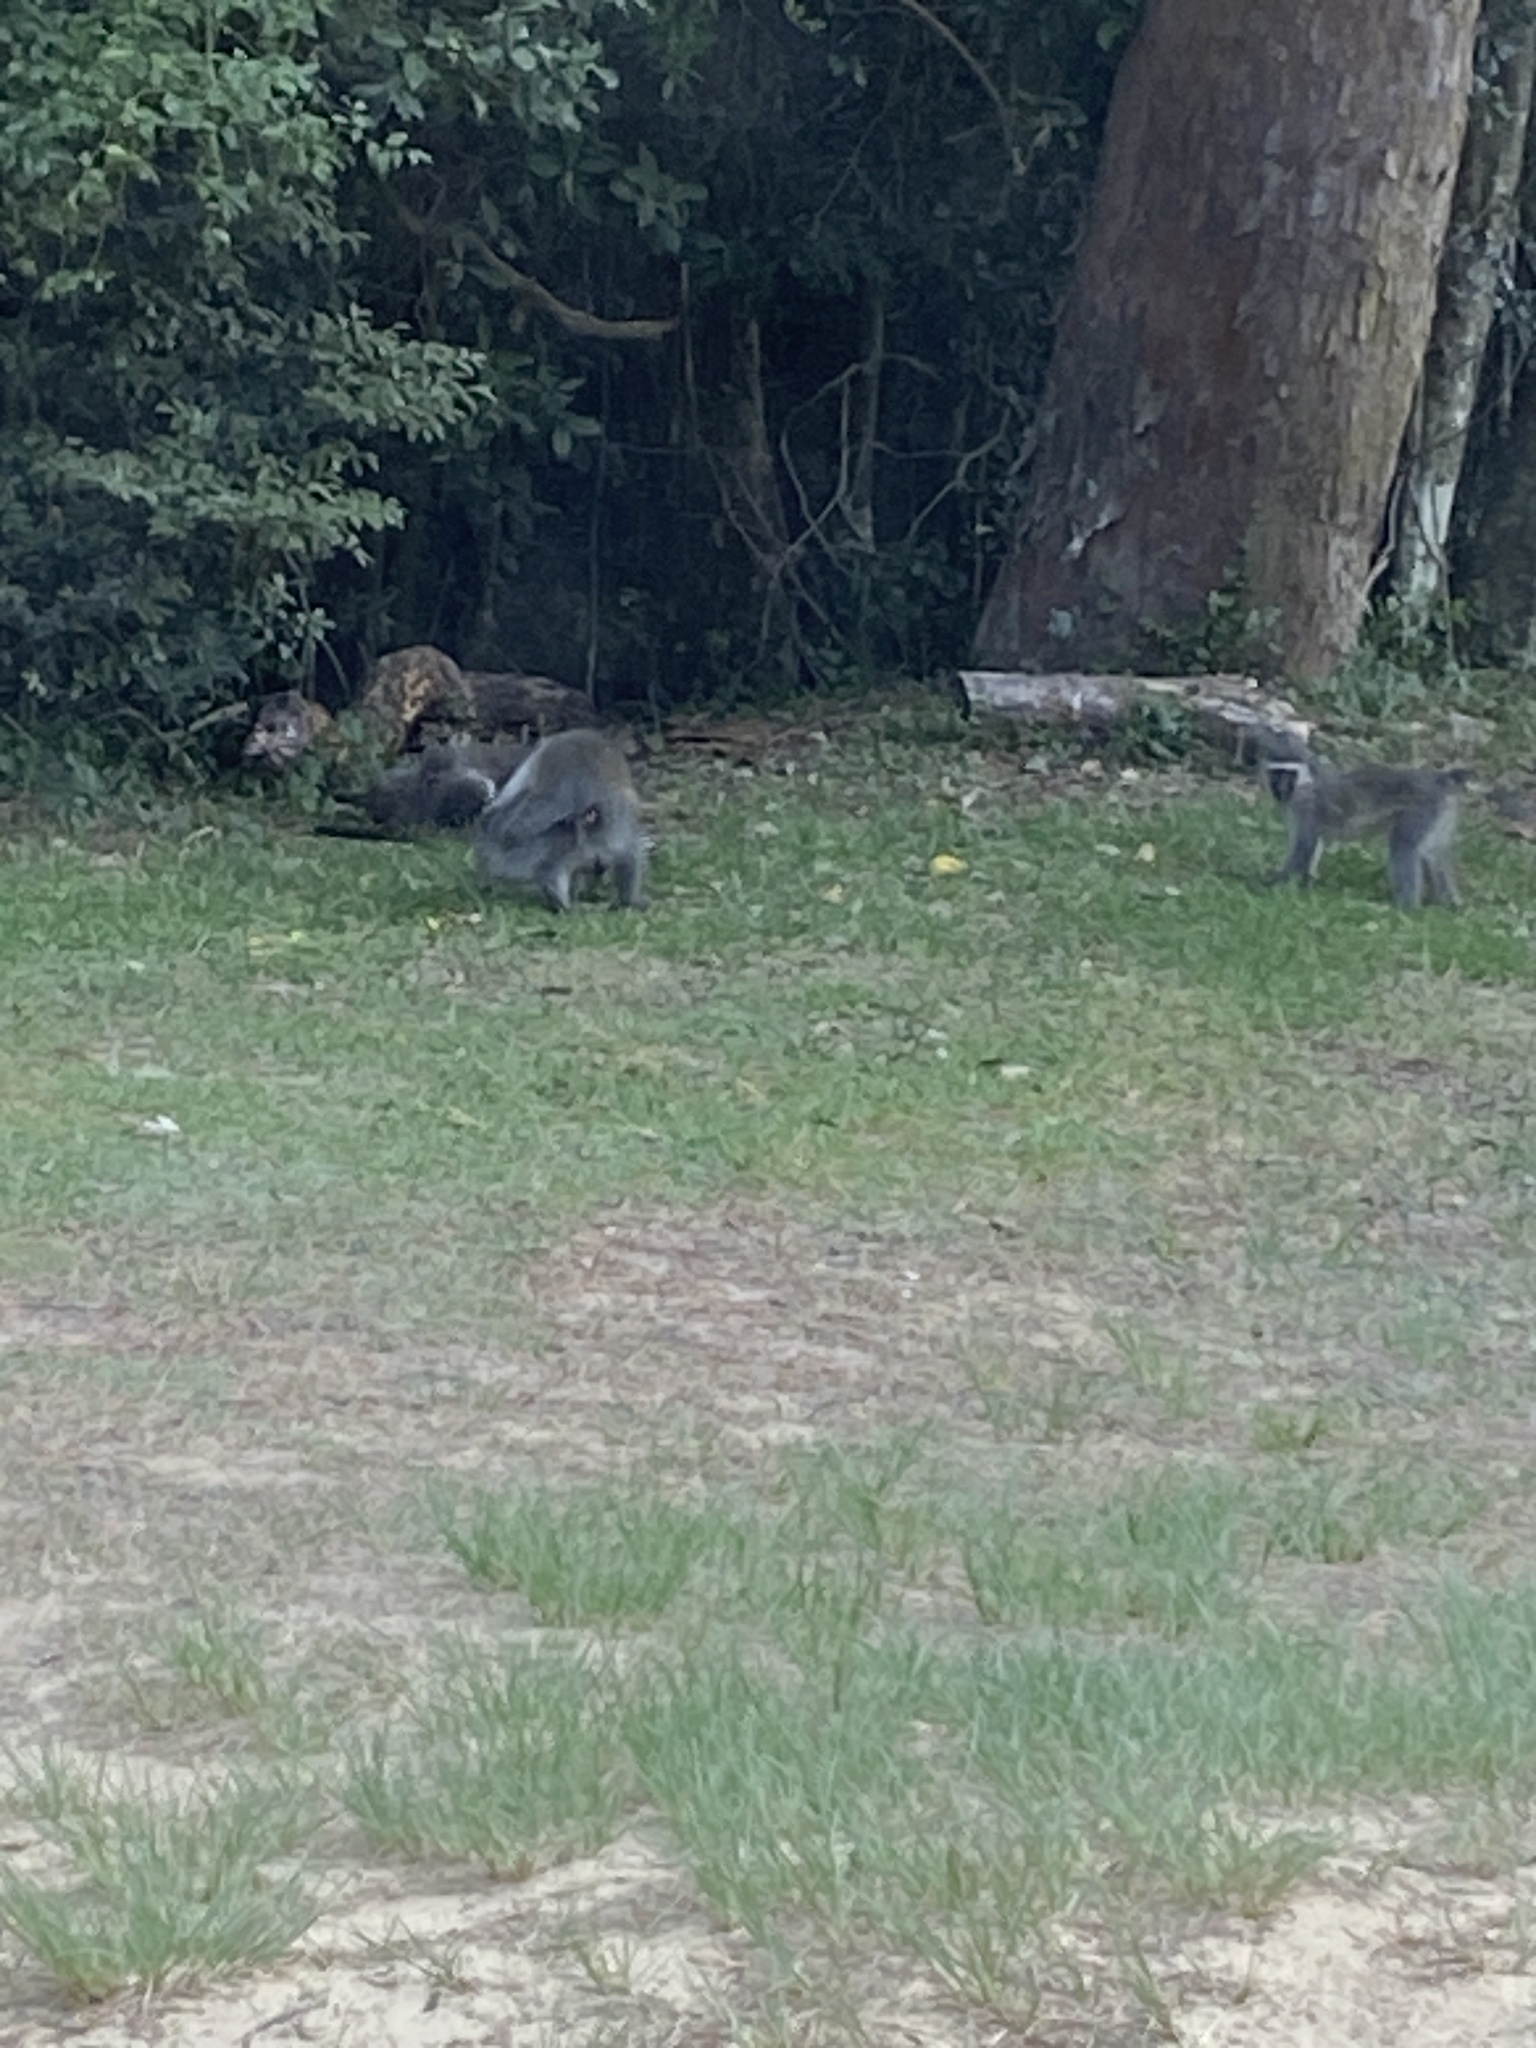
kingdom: Animalia
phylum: Chordata
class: Mammalia
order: Primates
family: Cercopithecidae
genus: Chlorocebus
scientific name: Chlorocebus pygerythrus
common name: Vervet monkey
